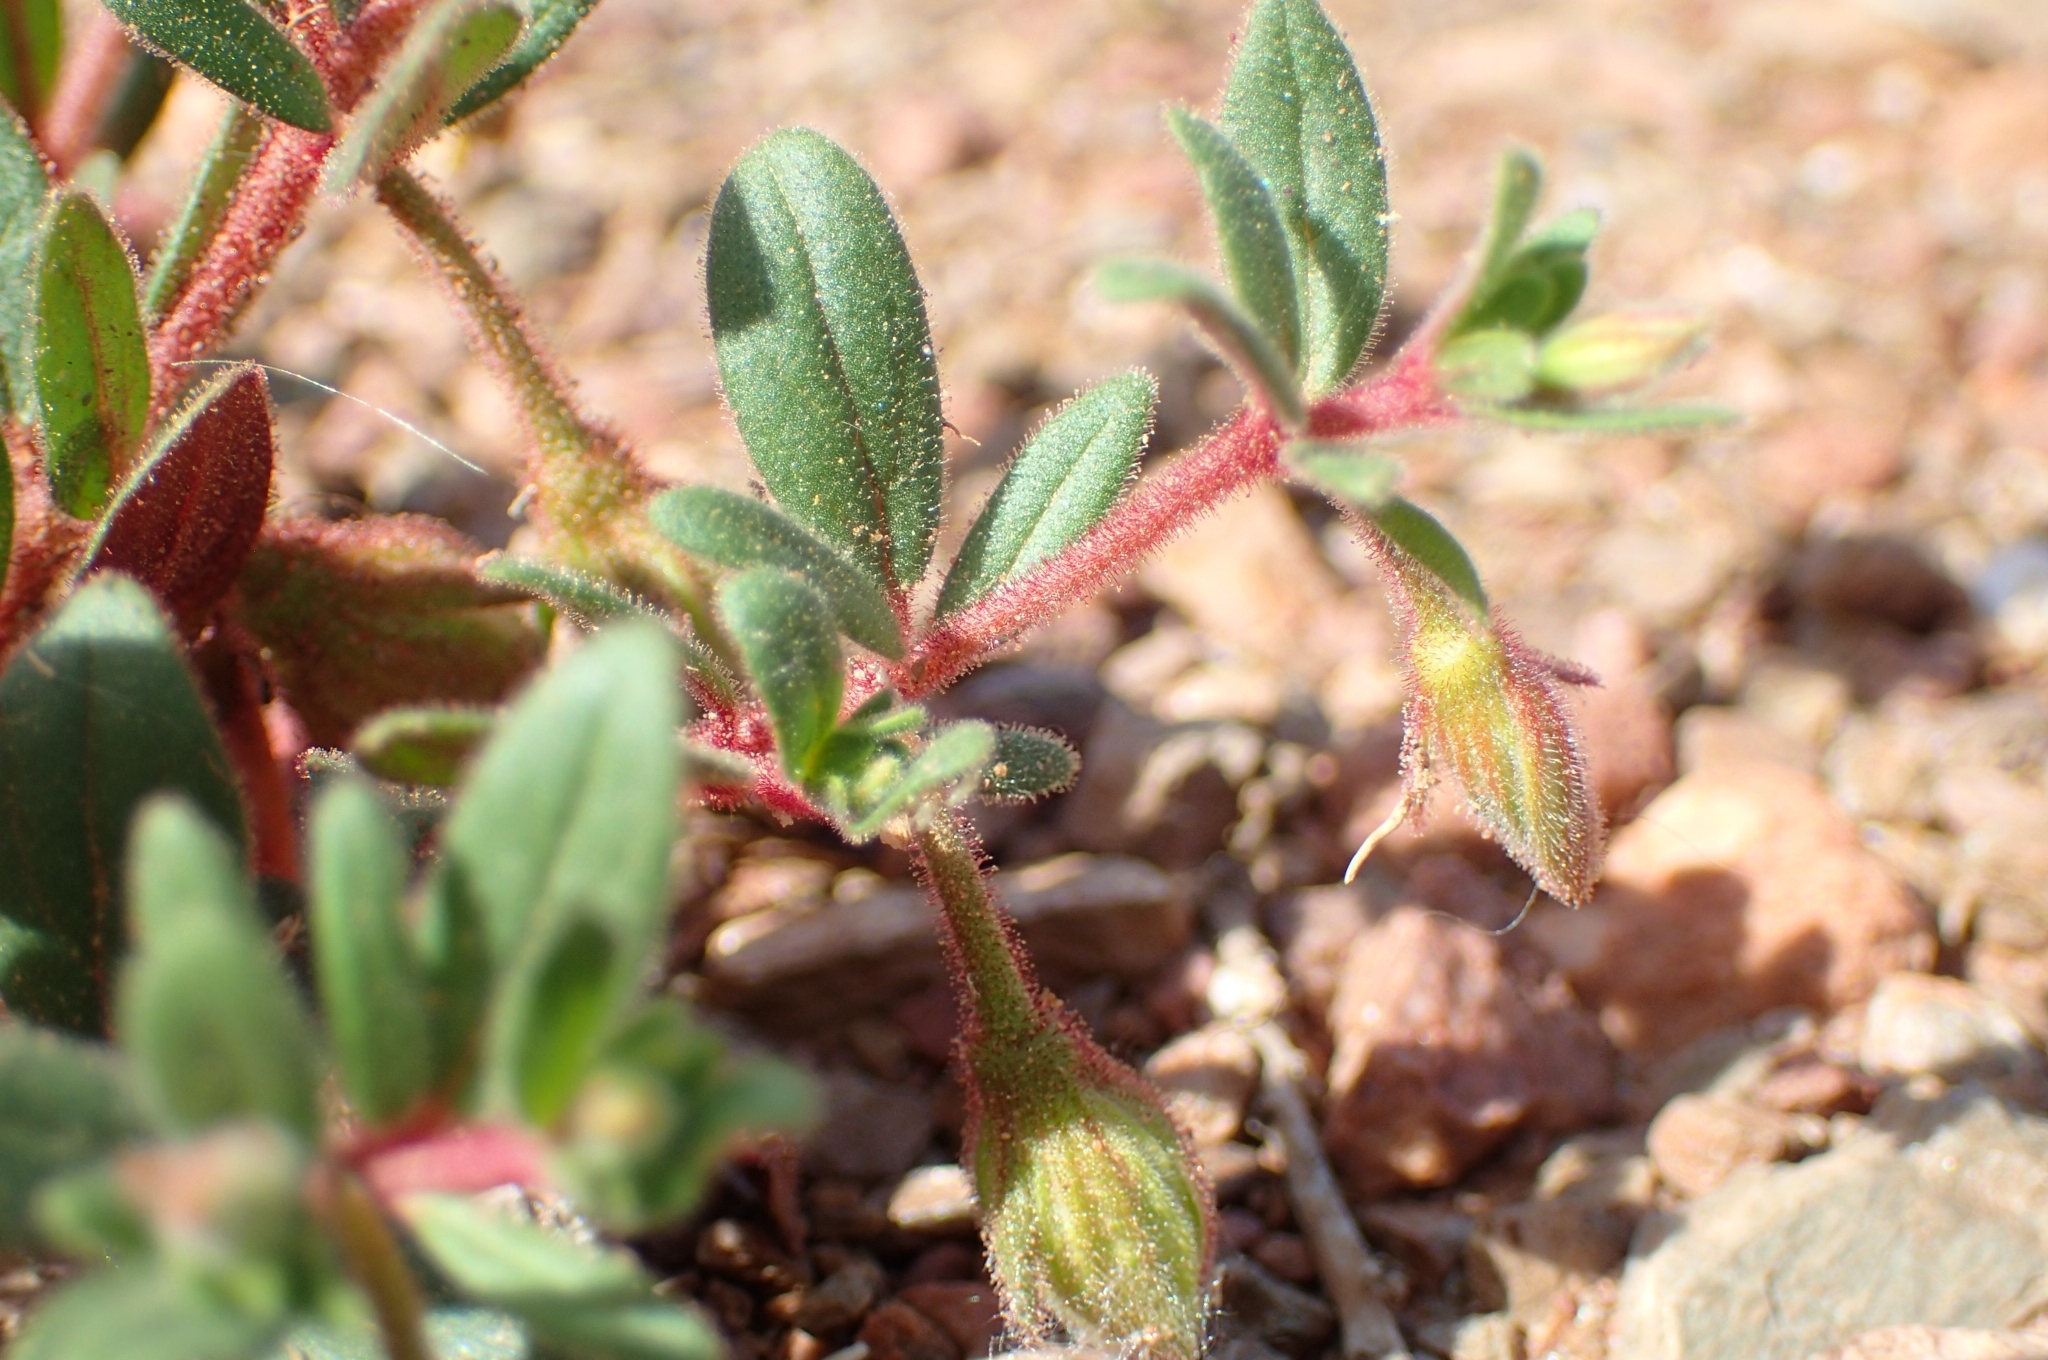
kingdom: Plantae
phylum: Tracheophyta
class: Magnoliopsida
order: Malvales
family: Cistaceae
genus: Helianthemum
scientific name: Helianthemum sanguineum
